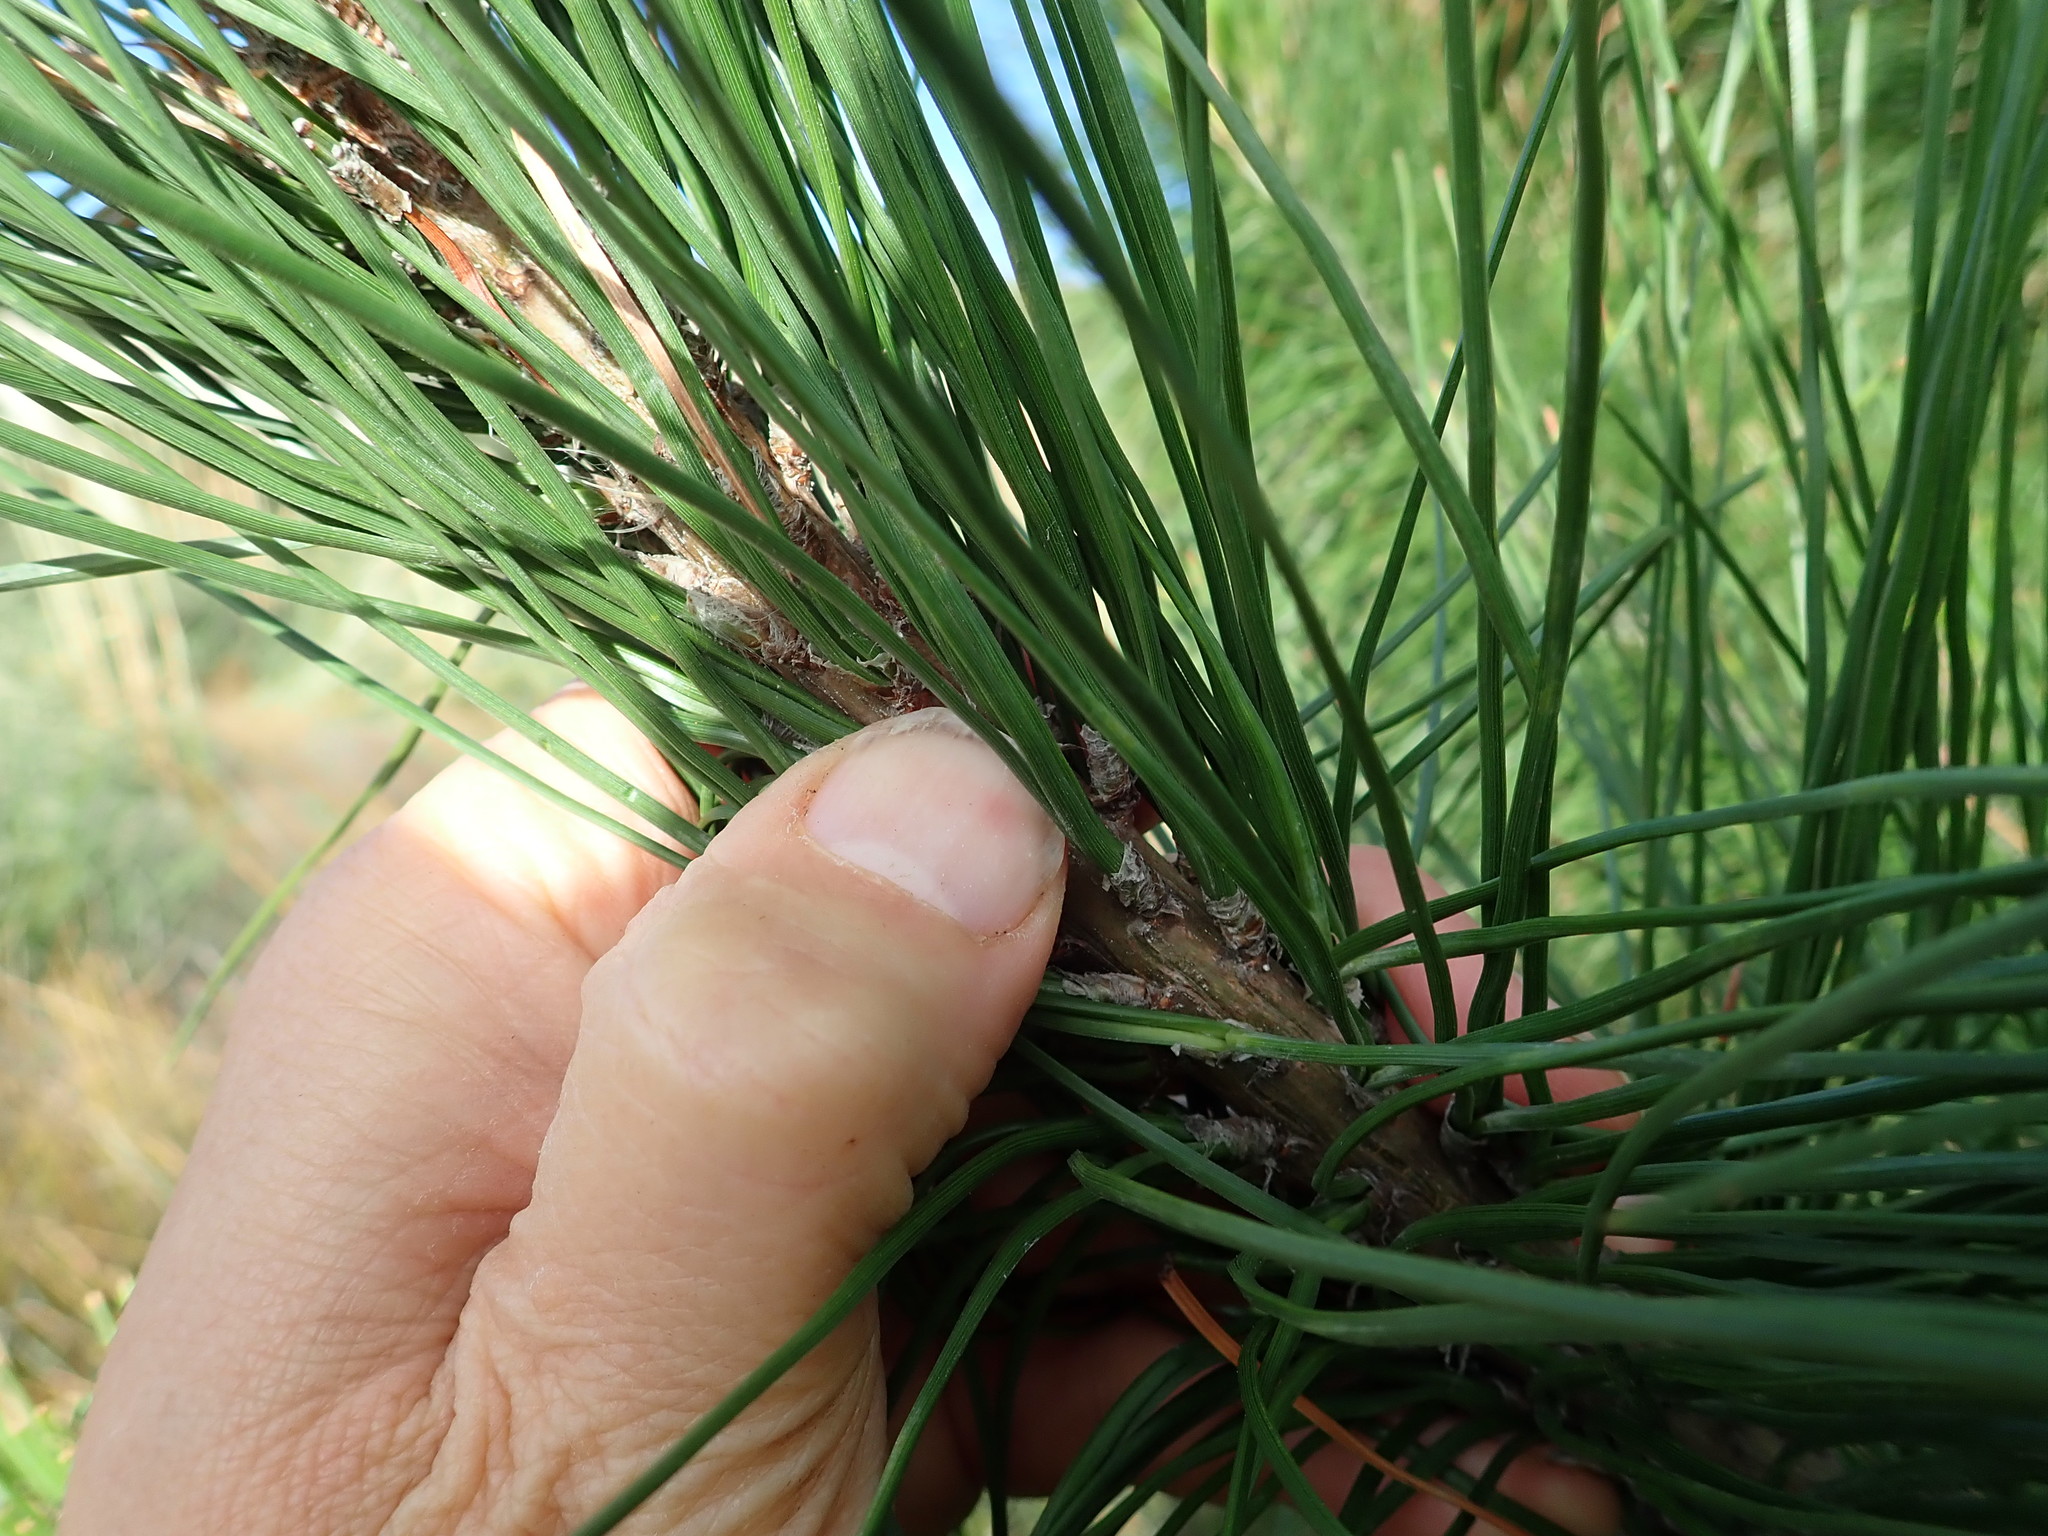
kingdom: Plantae
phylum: Tracheophyta
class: Pinopsida
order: Pinales
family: Pinaceae
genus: Pinus
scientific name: Pinus radiata
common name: Monterey pine
